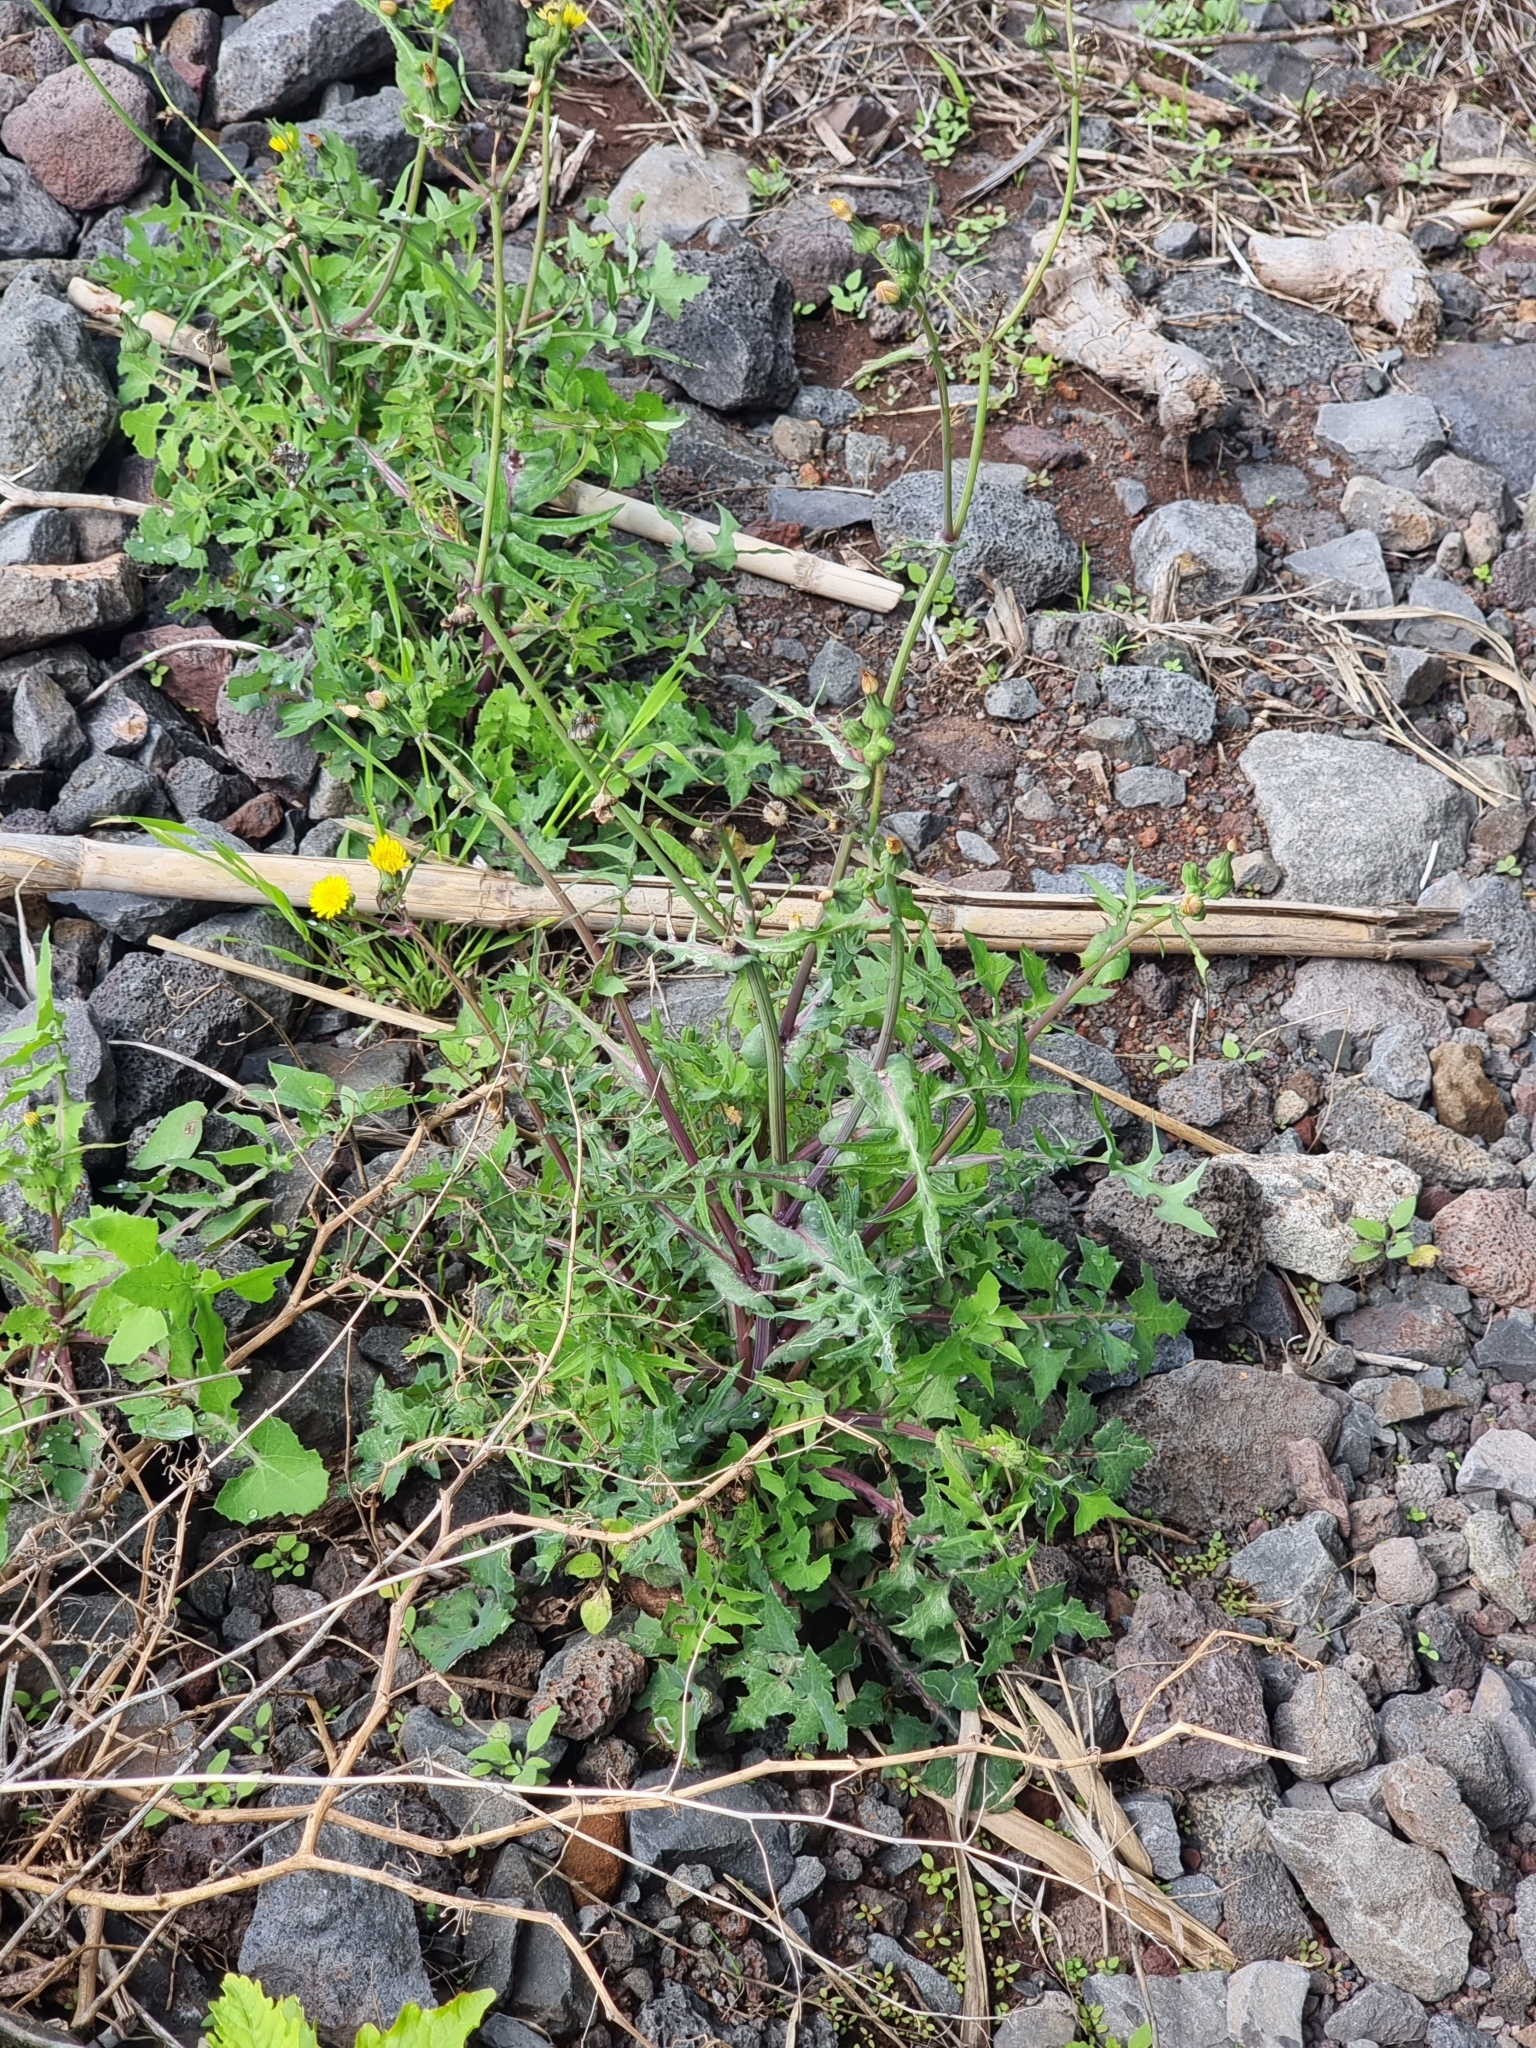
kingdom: Plantae
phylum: Tracheophyta
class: Magnoliopsida
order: Asterales
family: Asteraceae
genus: Sonchus
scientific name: Sonchus oleraceus
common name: Common sowthistle
